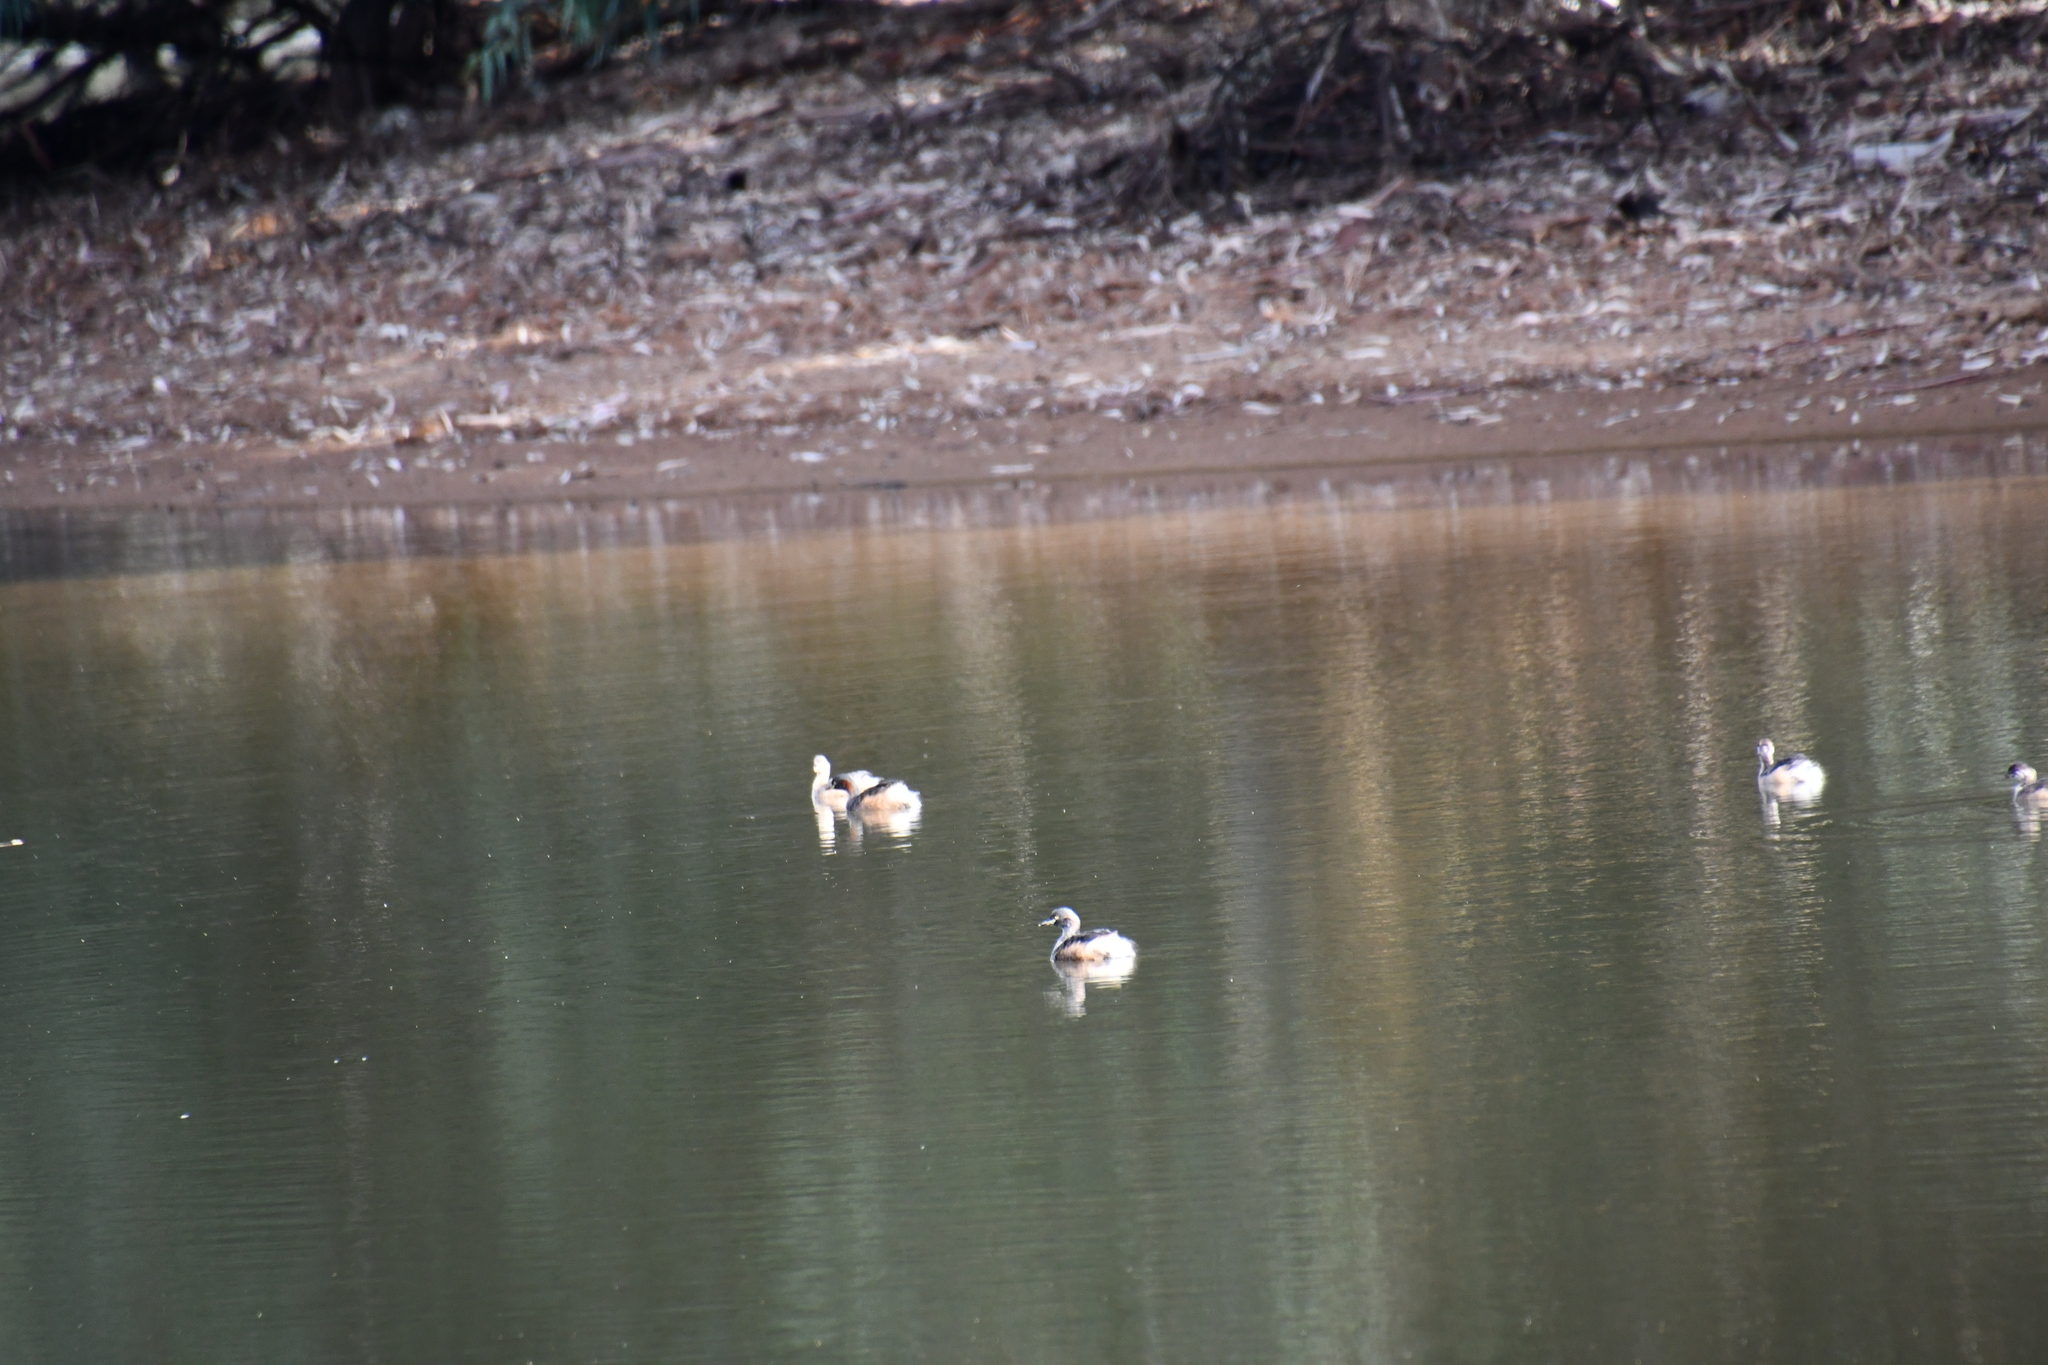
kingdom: Animalia
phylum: Chordata
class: Aves
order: Podicipediformes
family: Podicipedidae
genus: Tachybaptus
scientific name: Tachybaptus novaehollandiae
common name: Australasian grebe
